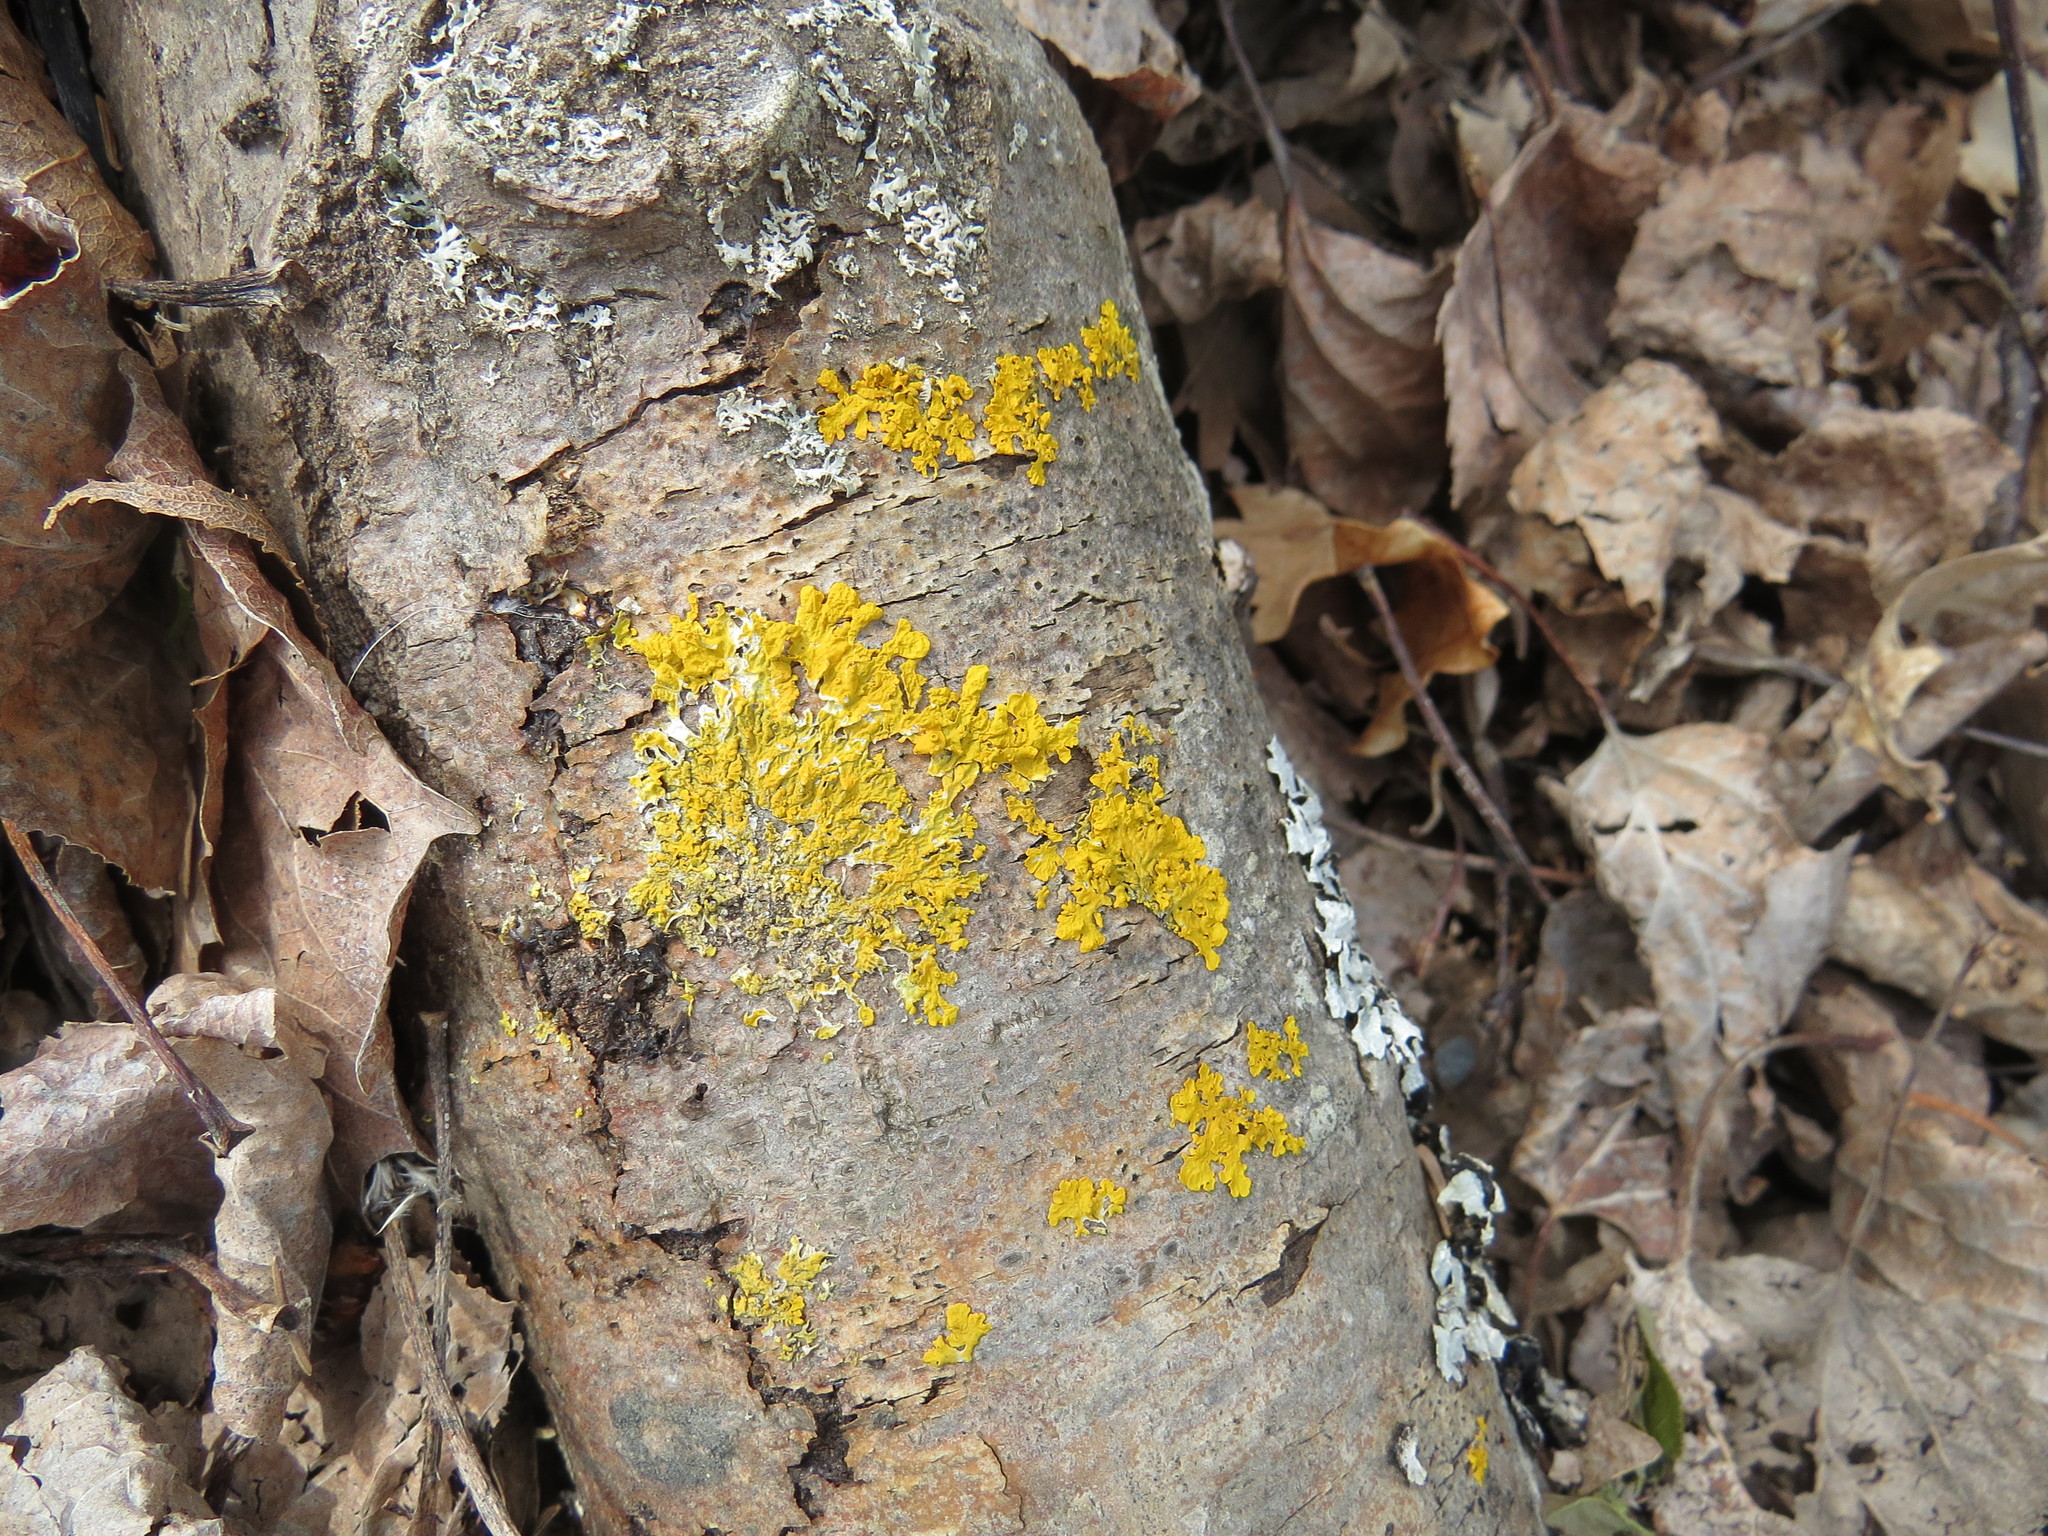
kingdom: Fungi
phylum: Ascomycota
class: Lecanoromycetes
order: Teloschistales
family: Teloschistaceae
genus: Xanthoria
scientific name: Xanthoria parietina
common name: Common orange lichen
